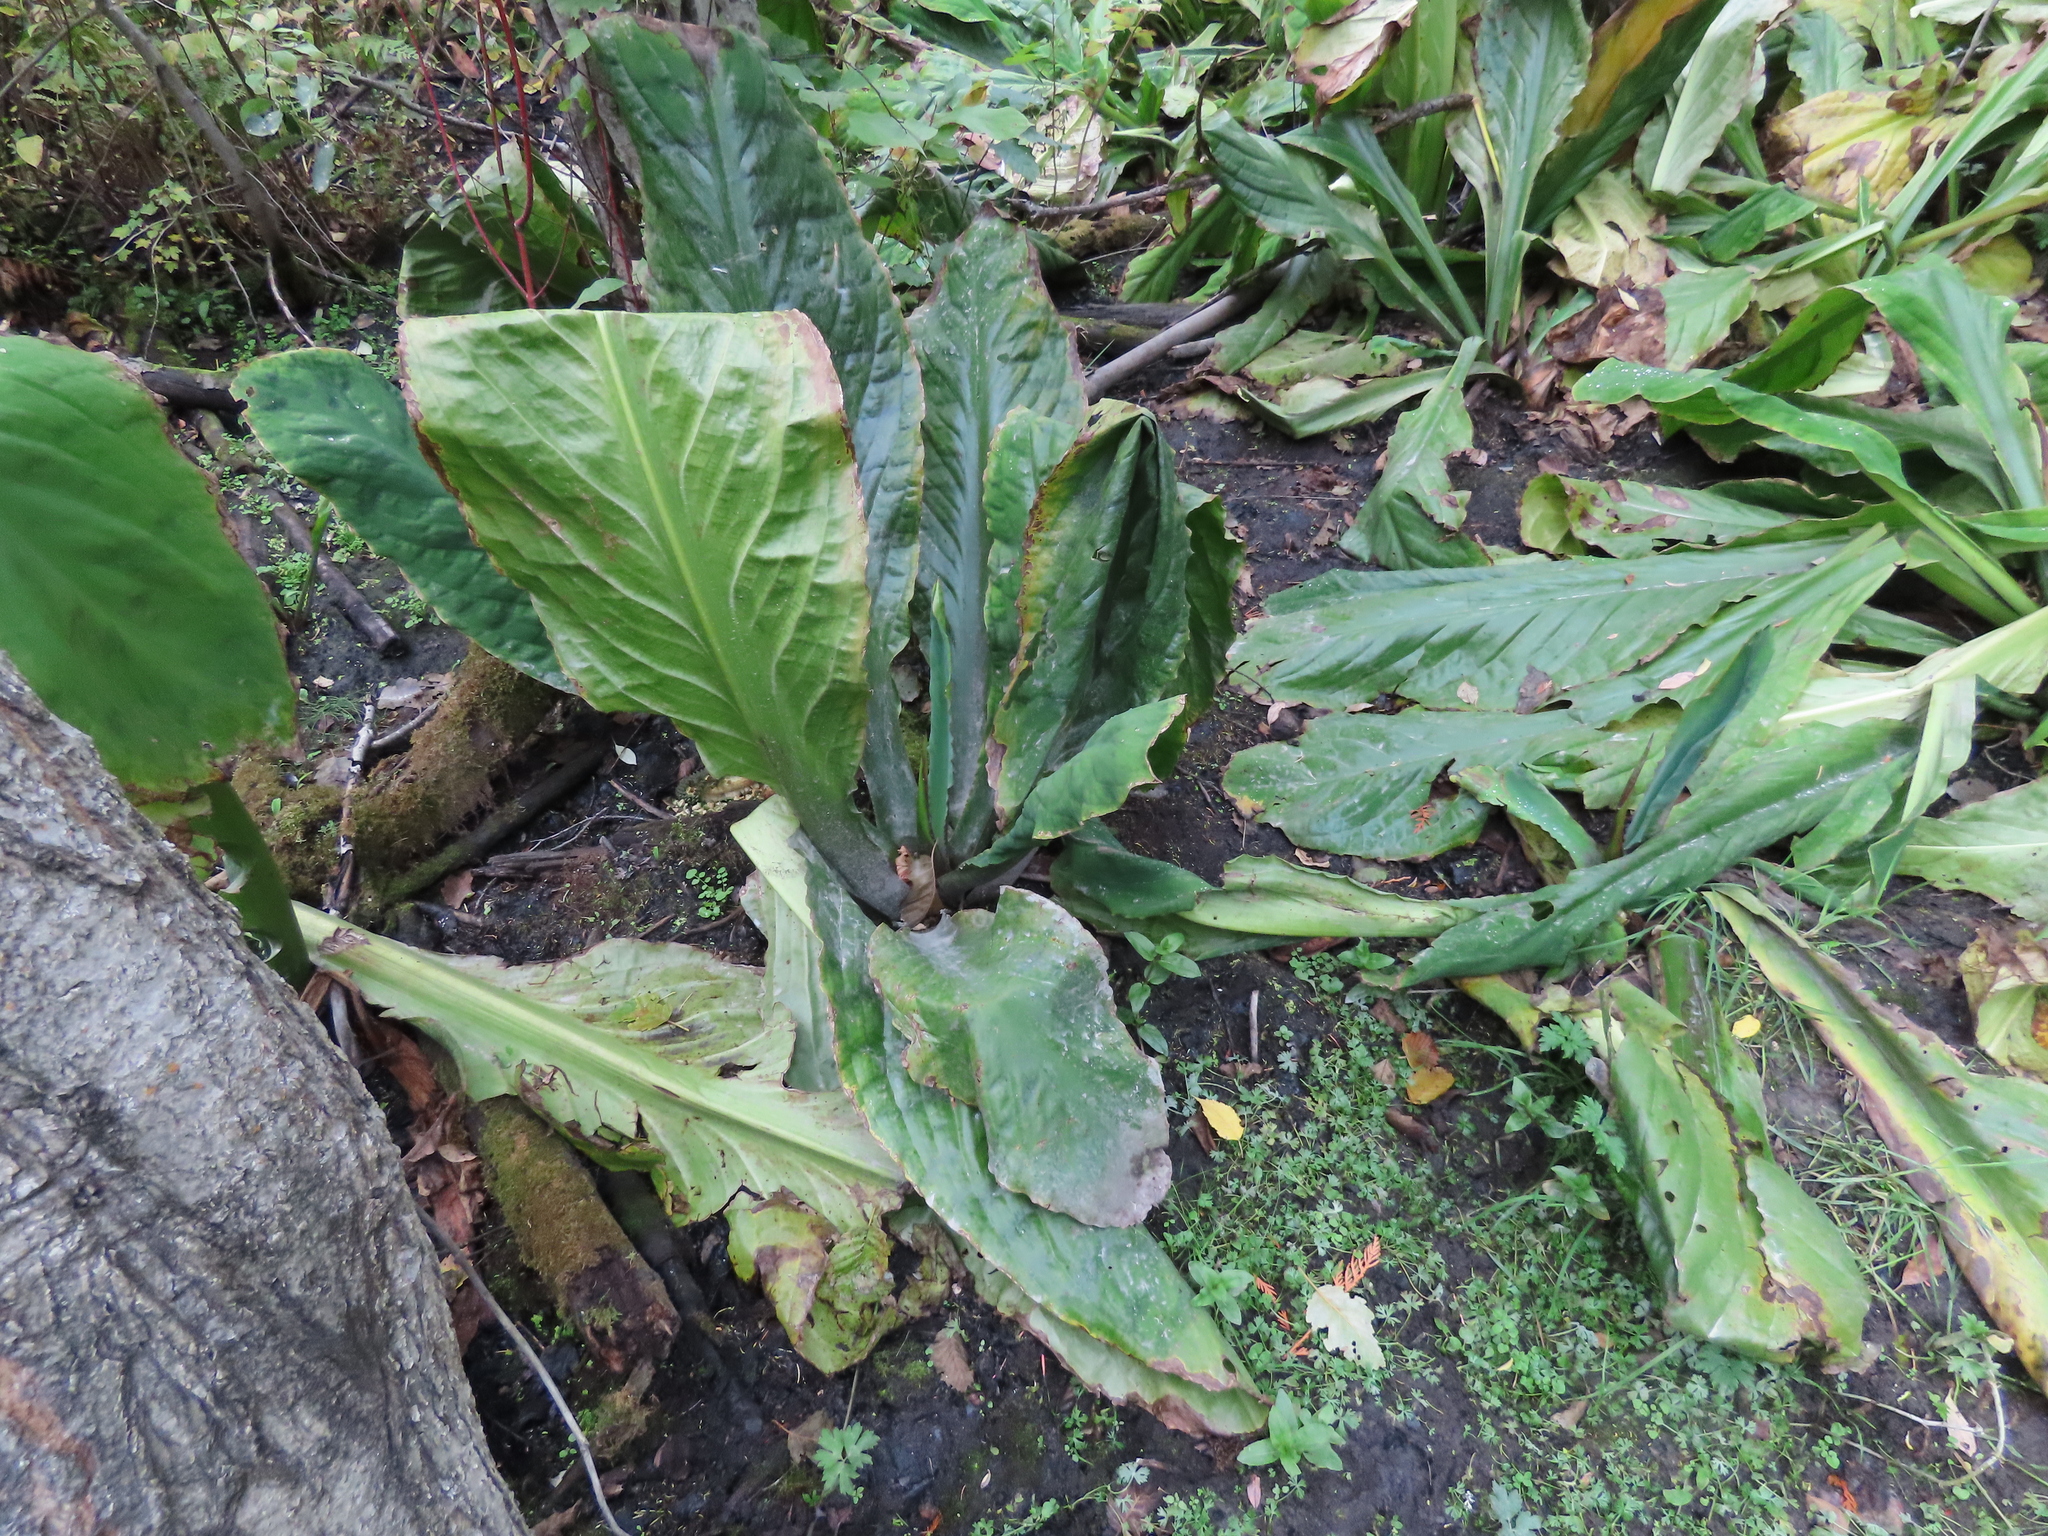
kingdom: Plantae
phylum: Tracheophyta
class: Liliopsida
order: Alismatales
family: Araceae
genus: Lysichiton
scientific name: Lysichiton americanus
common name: American skunk cabbage
